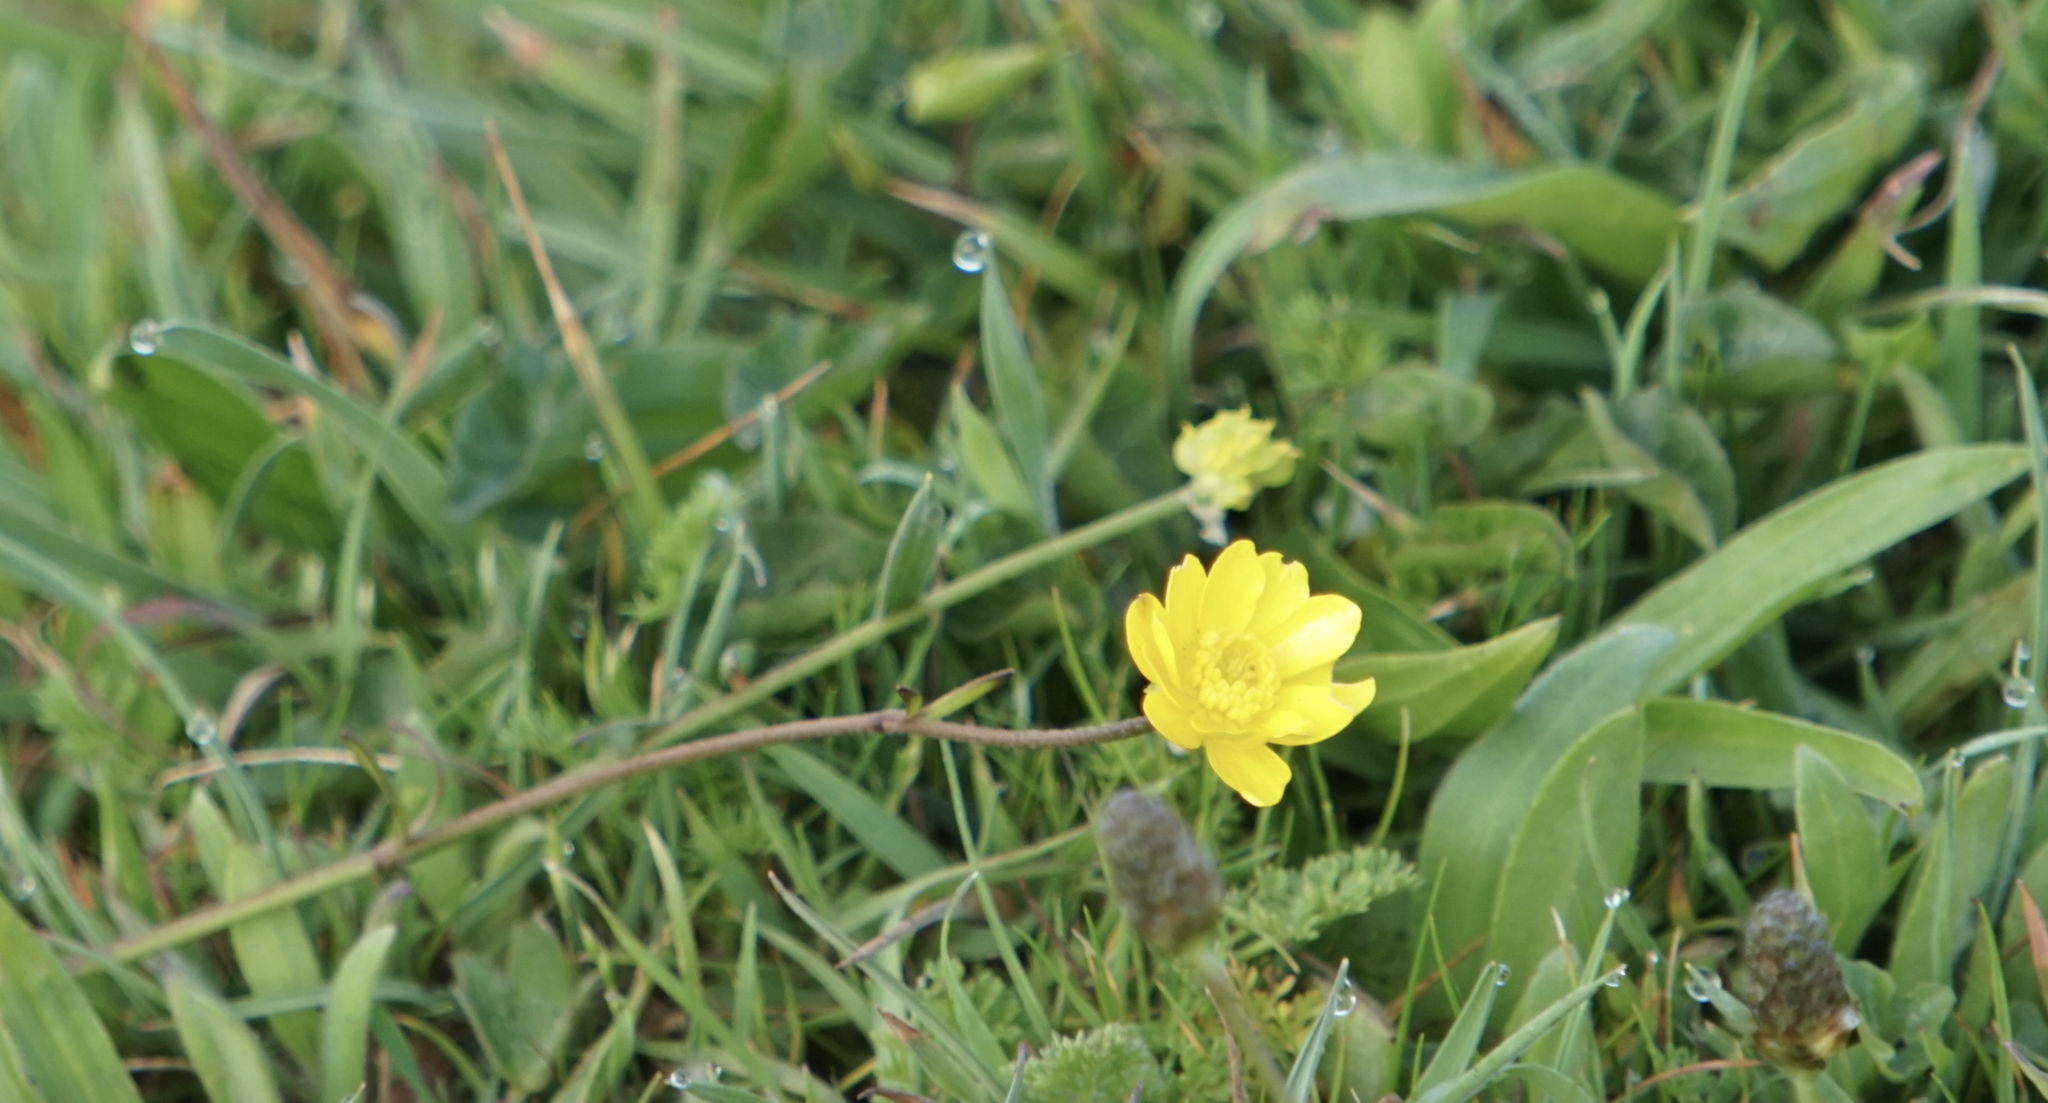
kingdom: Plantae
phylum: Tracheophyta
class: Magnoliopsida
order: Ranunculales
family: Ranunculaceae
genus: Ranunculus
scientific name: Ranunculus californicus
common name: California buttercup
